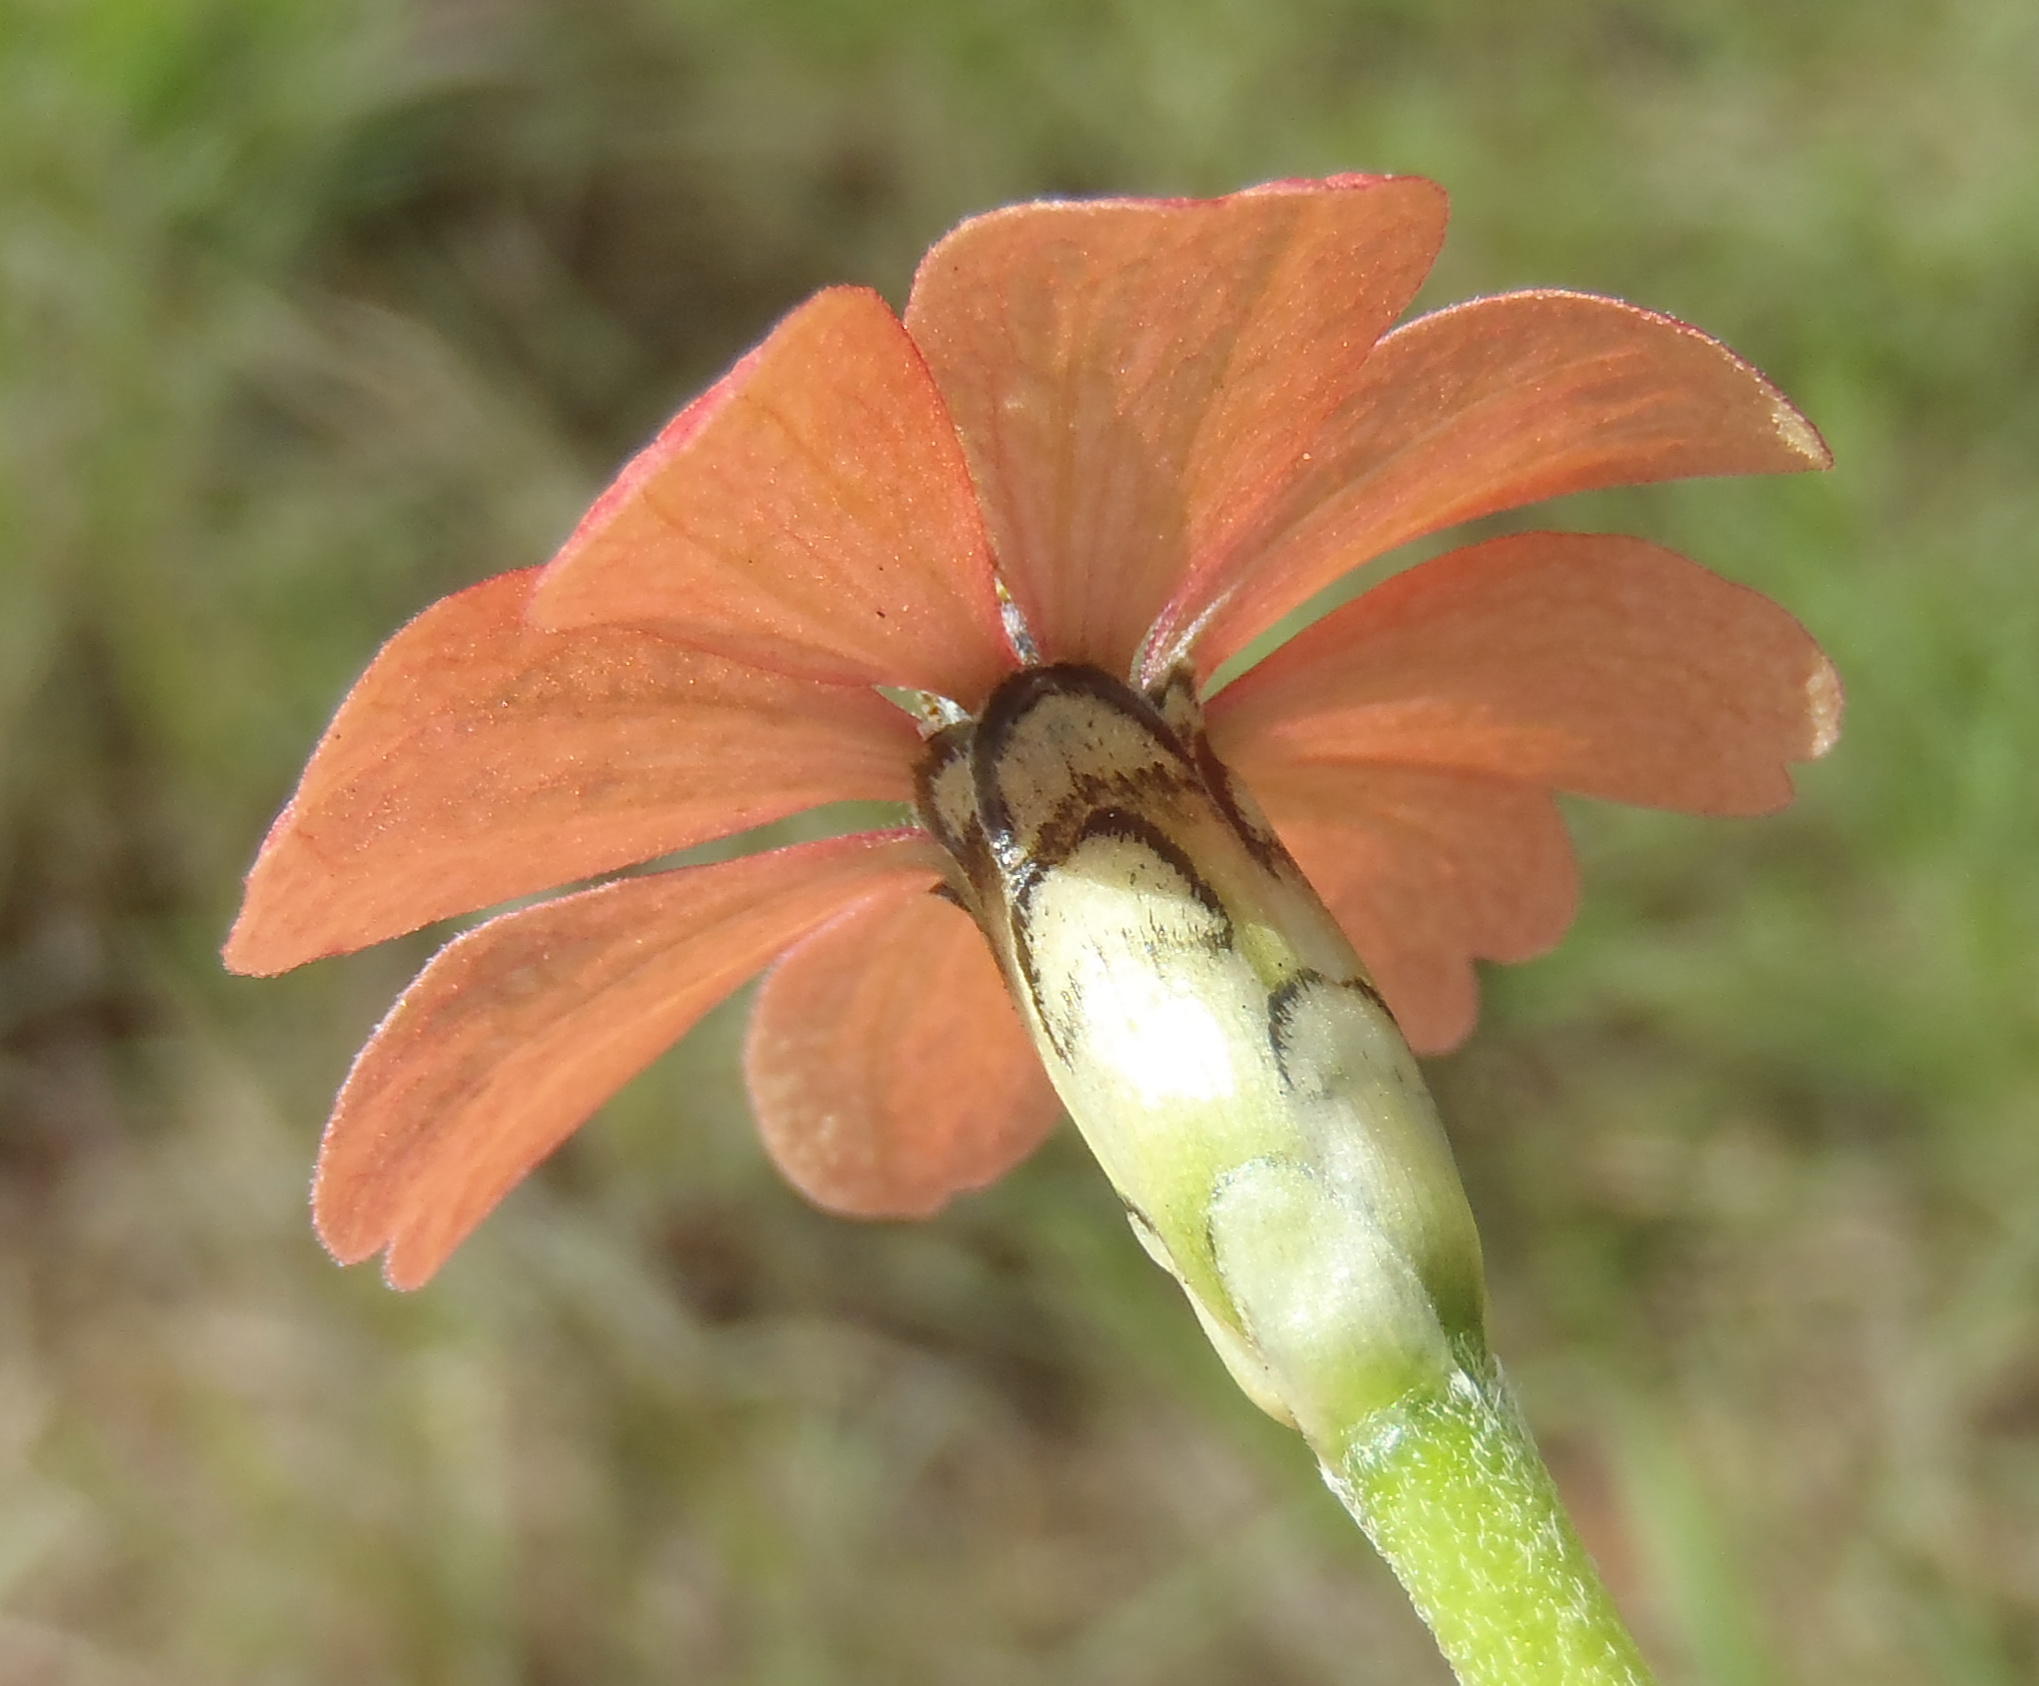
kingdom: Plantae
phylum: Tracheophyta
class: Magnoliopsida
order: Asterales
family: Asteraceae
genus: Zinnia
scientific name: Zinnia peruviana
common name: Peruvian zinnia
